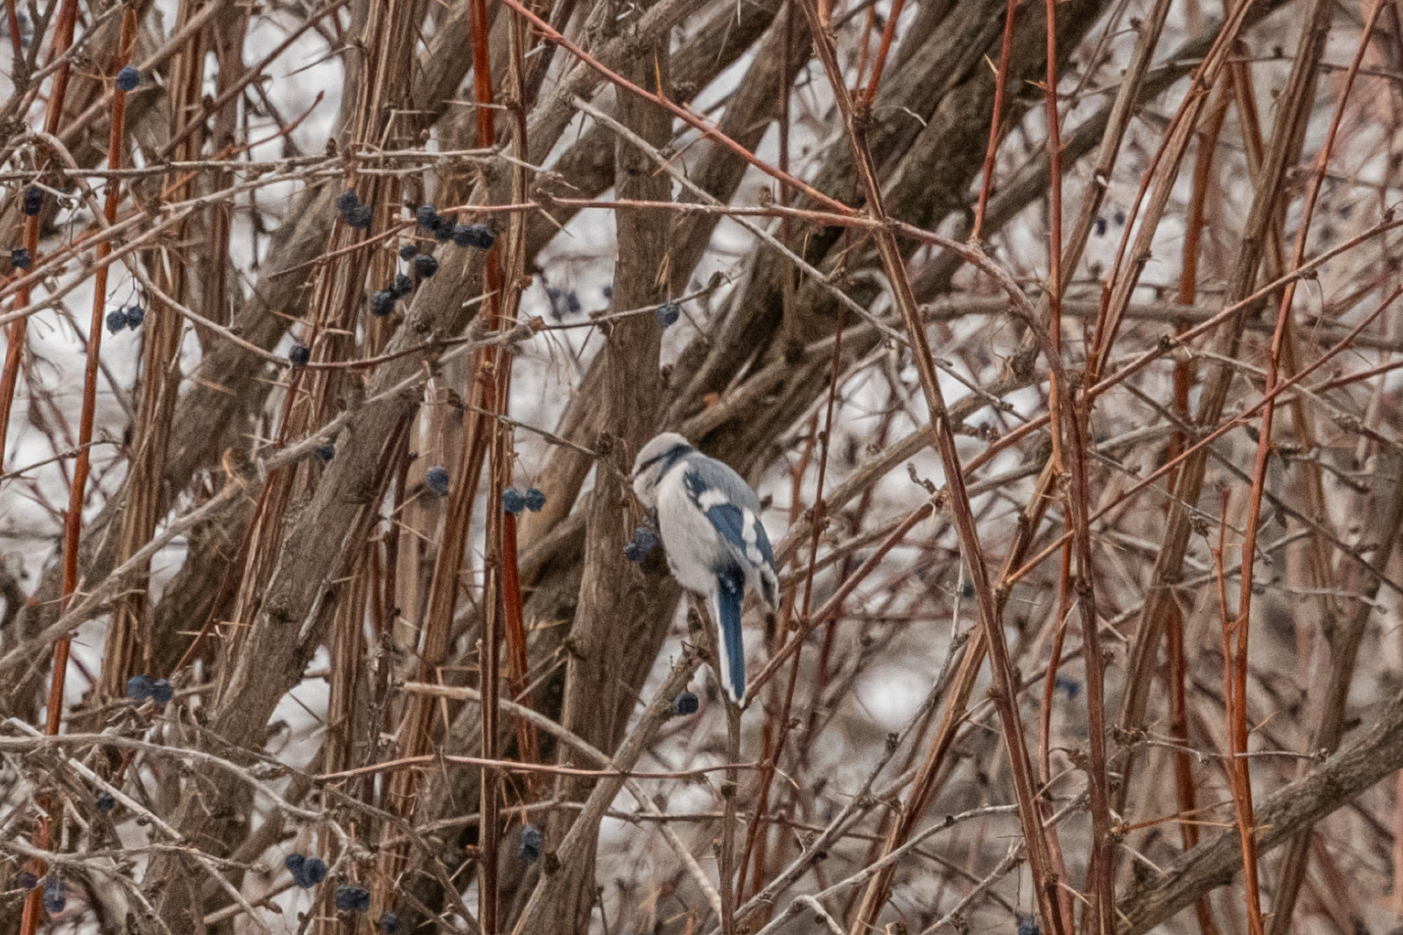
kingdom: Animalia
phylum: Chordata
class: Aves
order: Passeriformes
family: Paridae
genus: Cyanistes
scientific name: Cyanistes cyanus
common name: Azure tit
